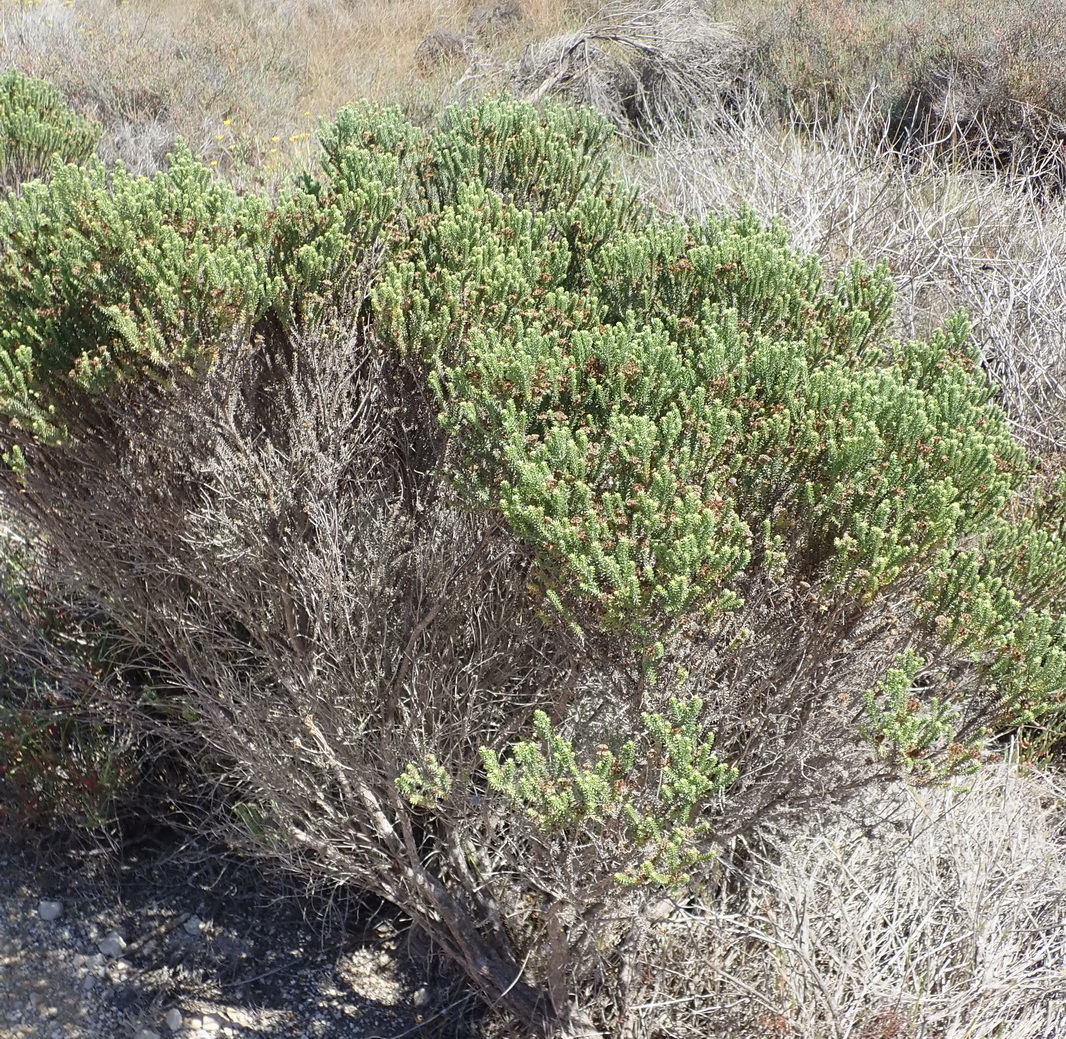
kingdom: Plantae
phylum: Tracheophyta
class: Magnoliopsida
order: Asterales
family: Asteraceae
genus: Oedera
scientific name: Oedera genistifolia
